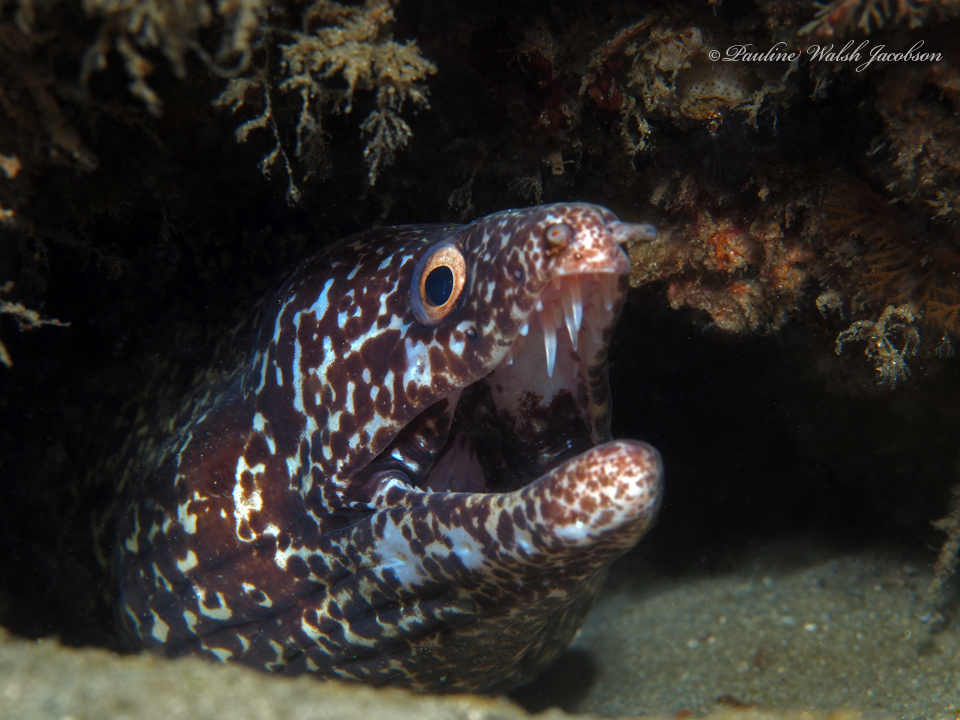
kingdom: Animalia
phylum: Chordata
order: Anguilliformes
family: Muraenidae
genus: Gymnothorax
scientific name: Gymnothorax moringa
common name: Spotted moray
